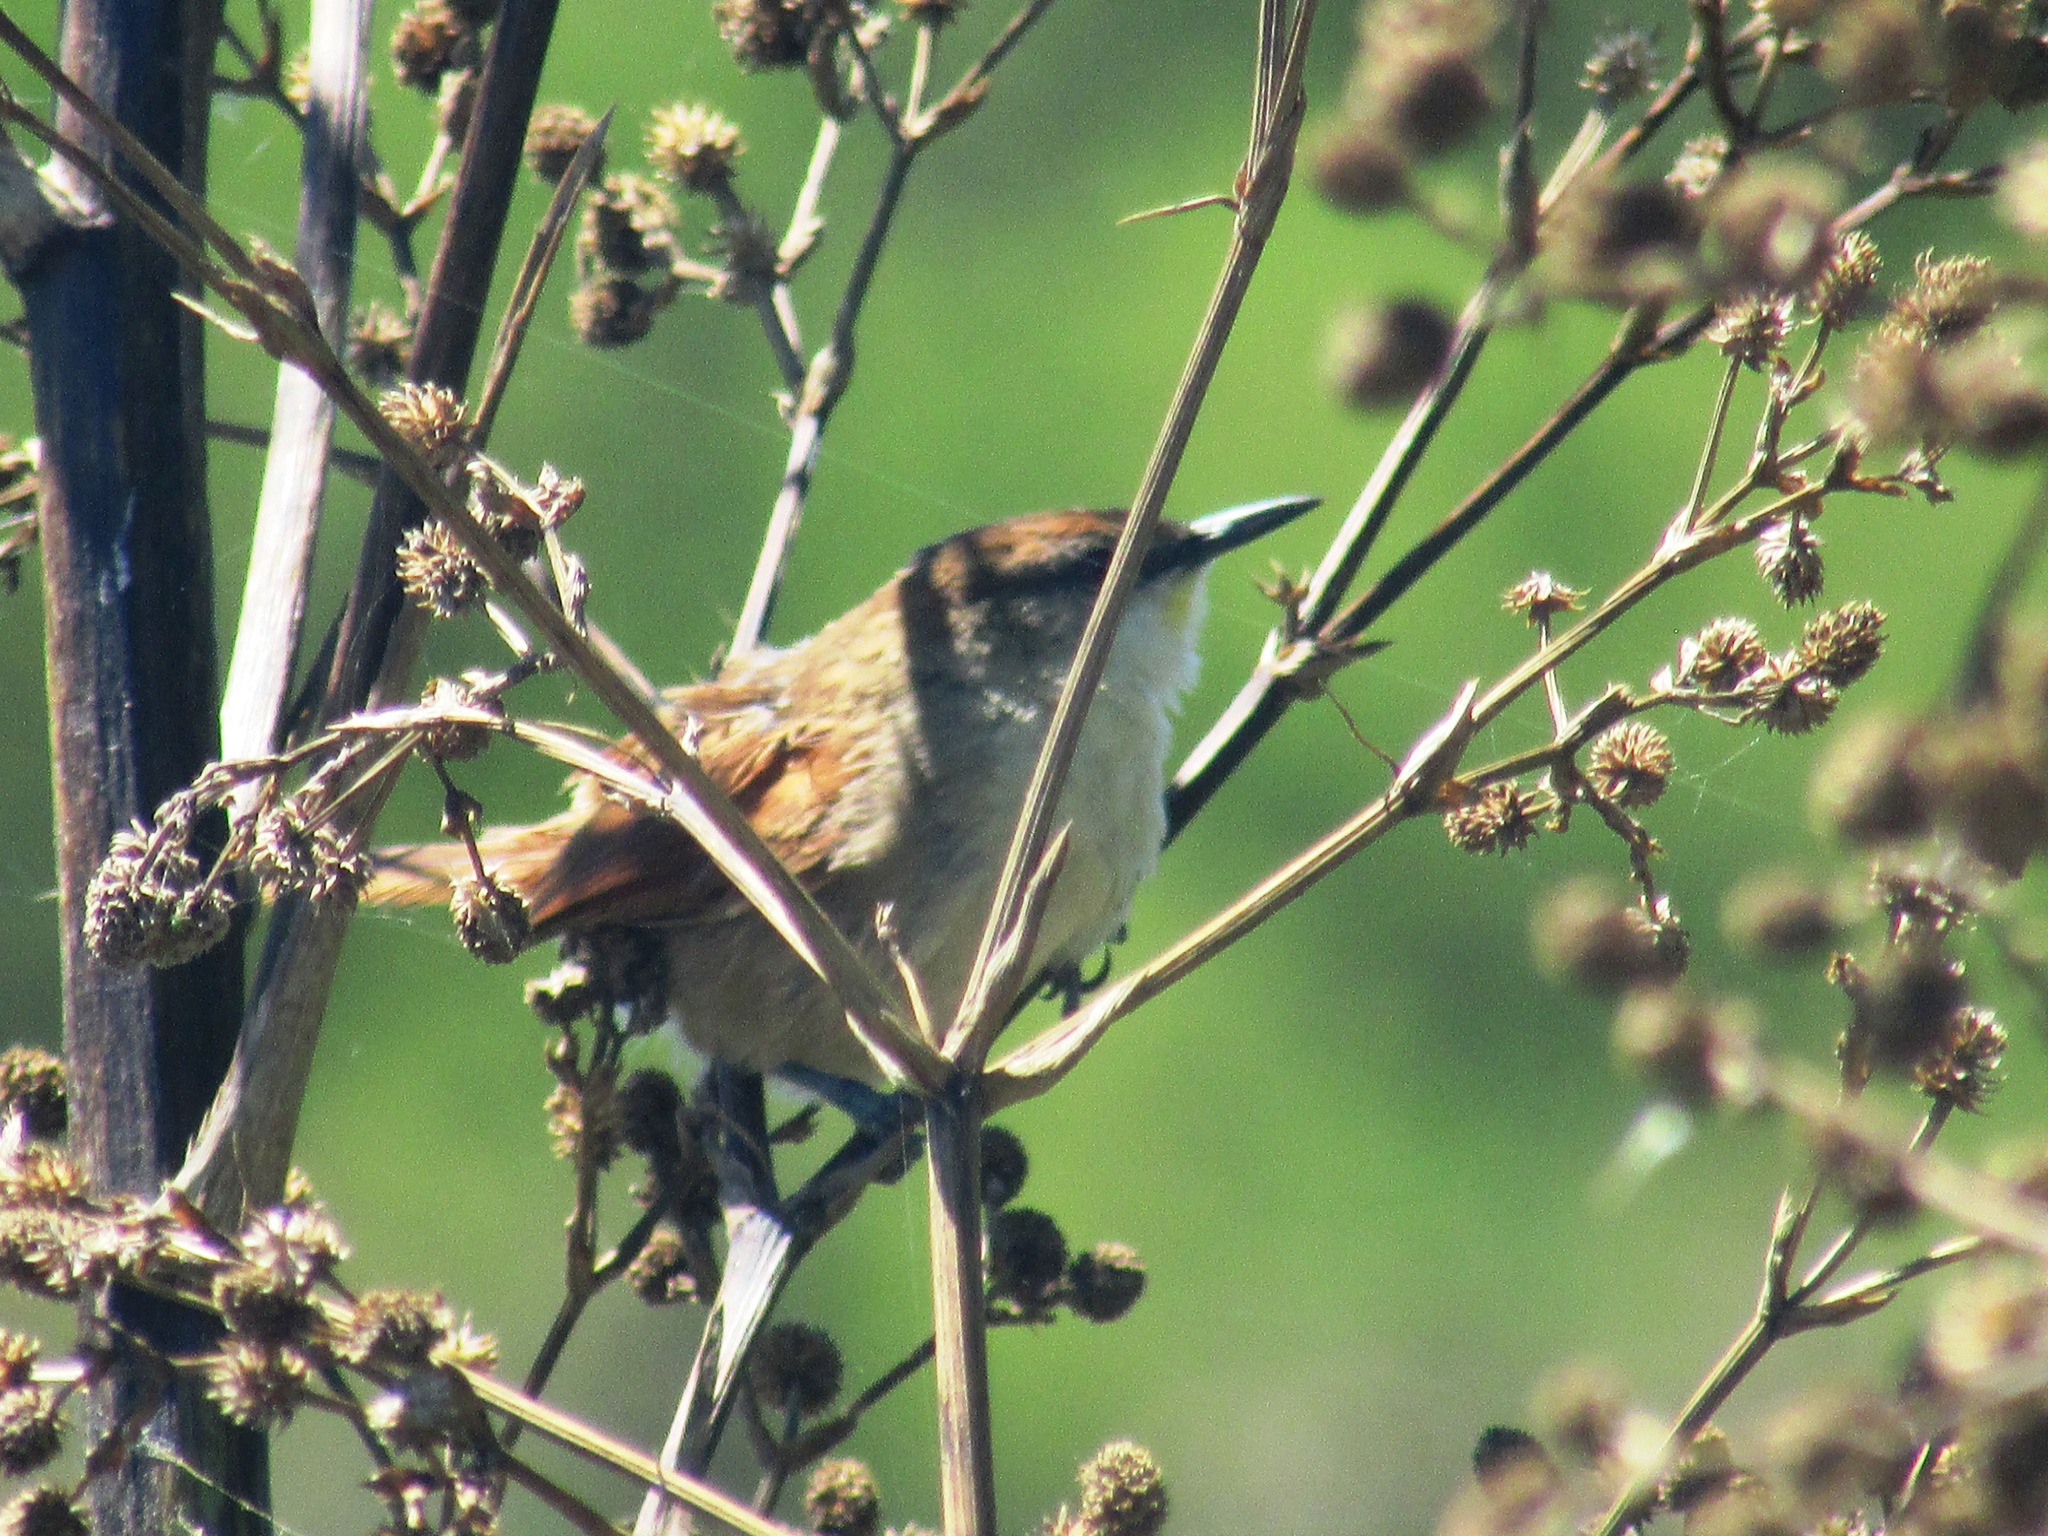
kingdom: Animalia
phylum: Chordata
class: Aves
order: Passeriformes
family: Furnariidae
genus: Certhiaxis
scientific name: Certhiaxis cinnamomeus
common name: Yellow-chinned spinetail
